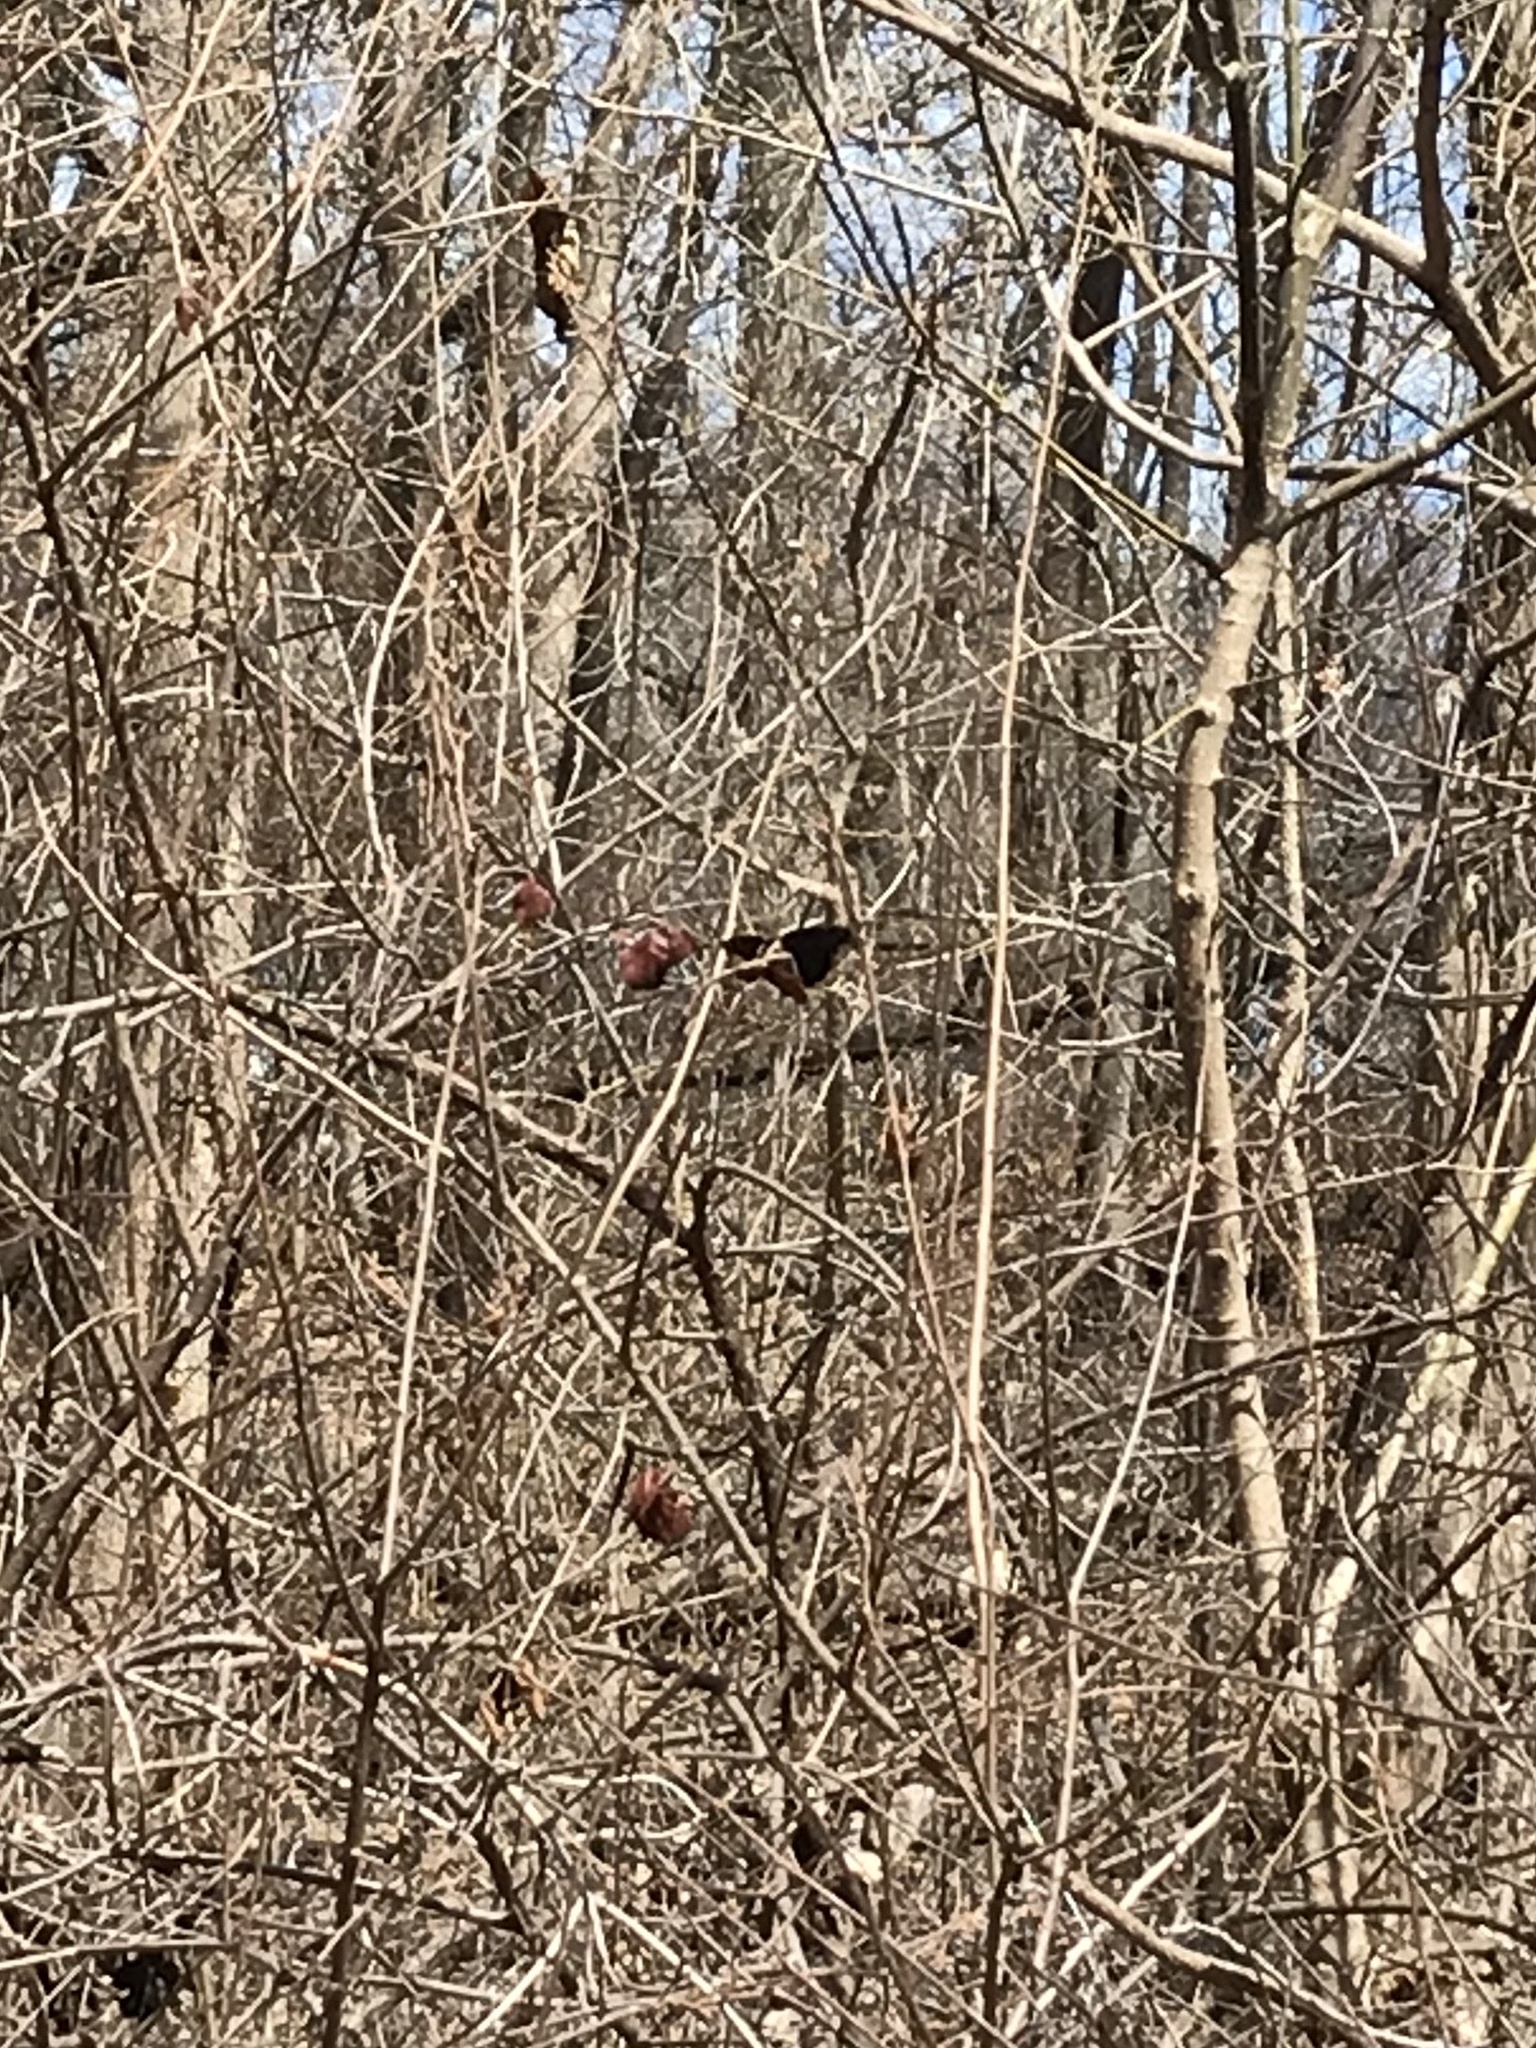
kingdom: Animalia
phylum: Arthropoda
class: Insecta
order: Lepidoptera
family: Nymphalidae
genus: Nymphalis
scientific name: Nymphalis antiopa
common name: Camberwell beauty
